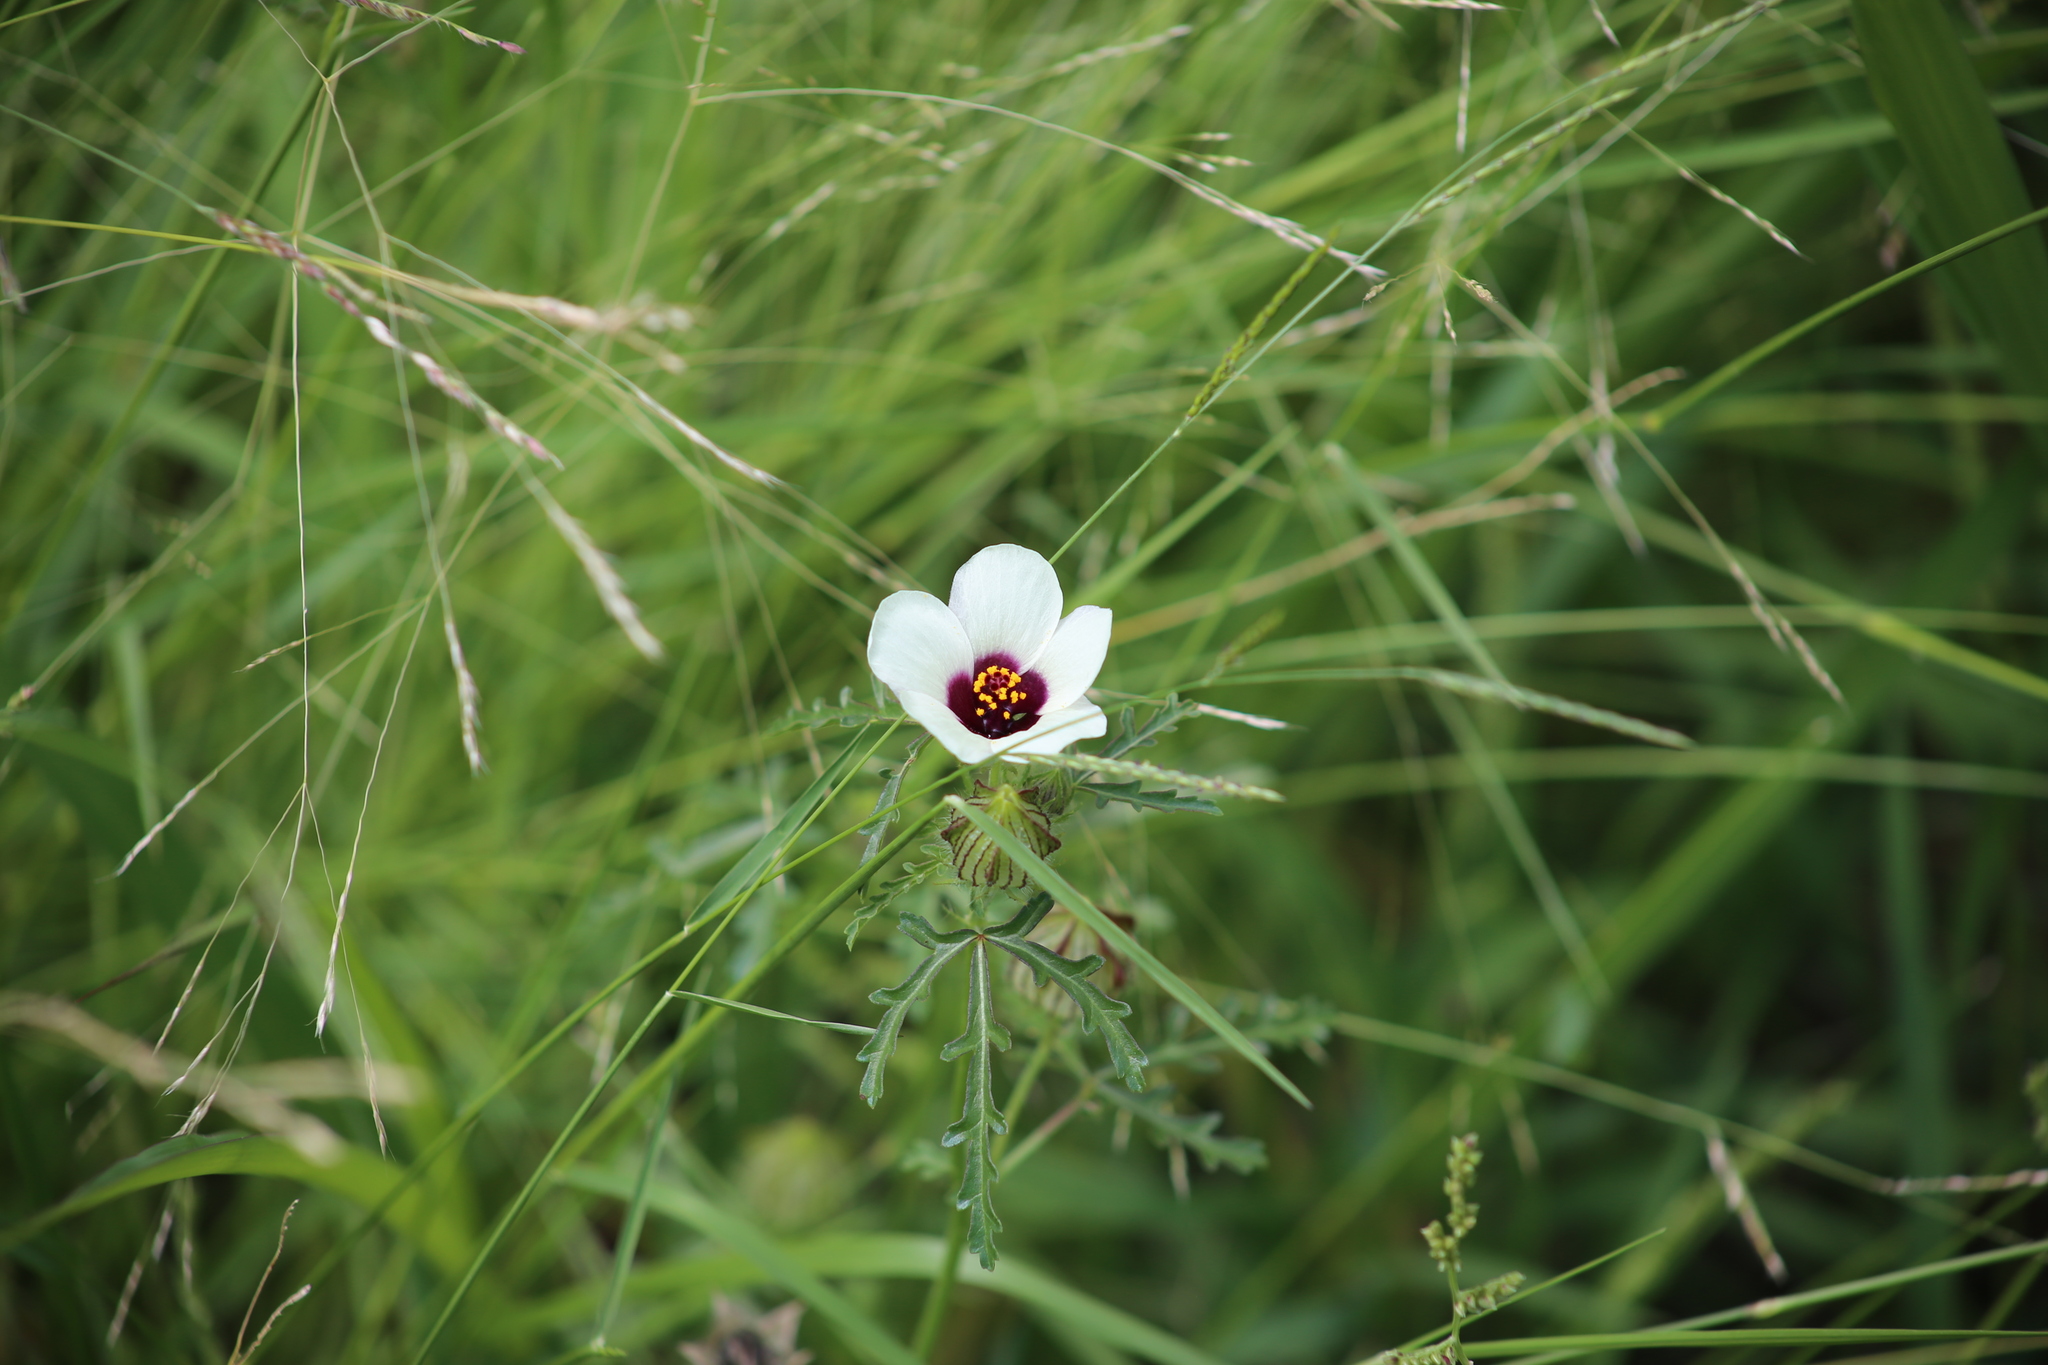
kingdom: Plantae
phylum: Tracheophyta
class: Magnoliopsida
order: Malvales
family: Malvaceae
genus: Hibiscus
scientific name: Hibiscus tridactylites
